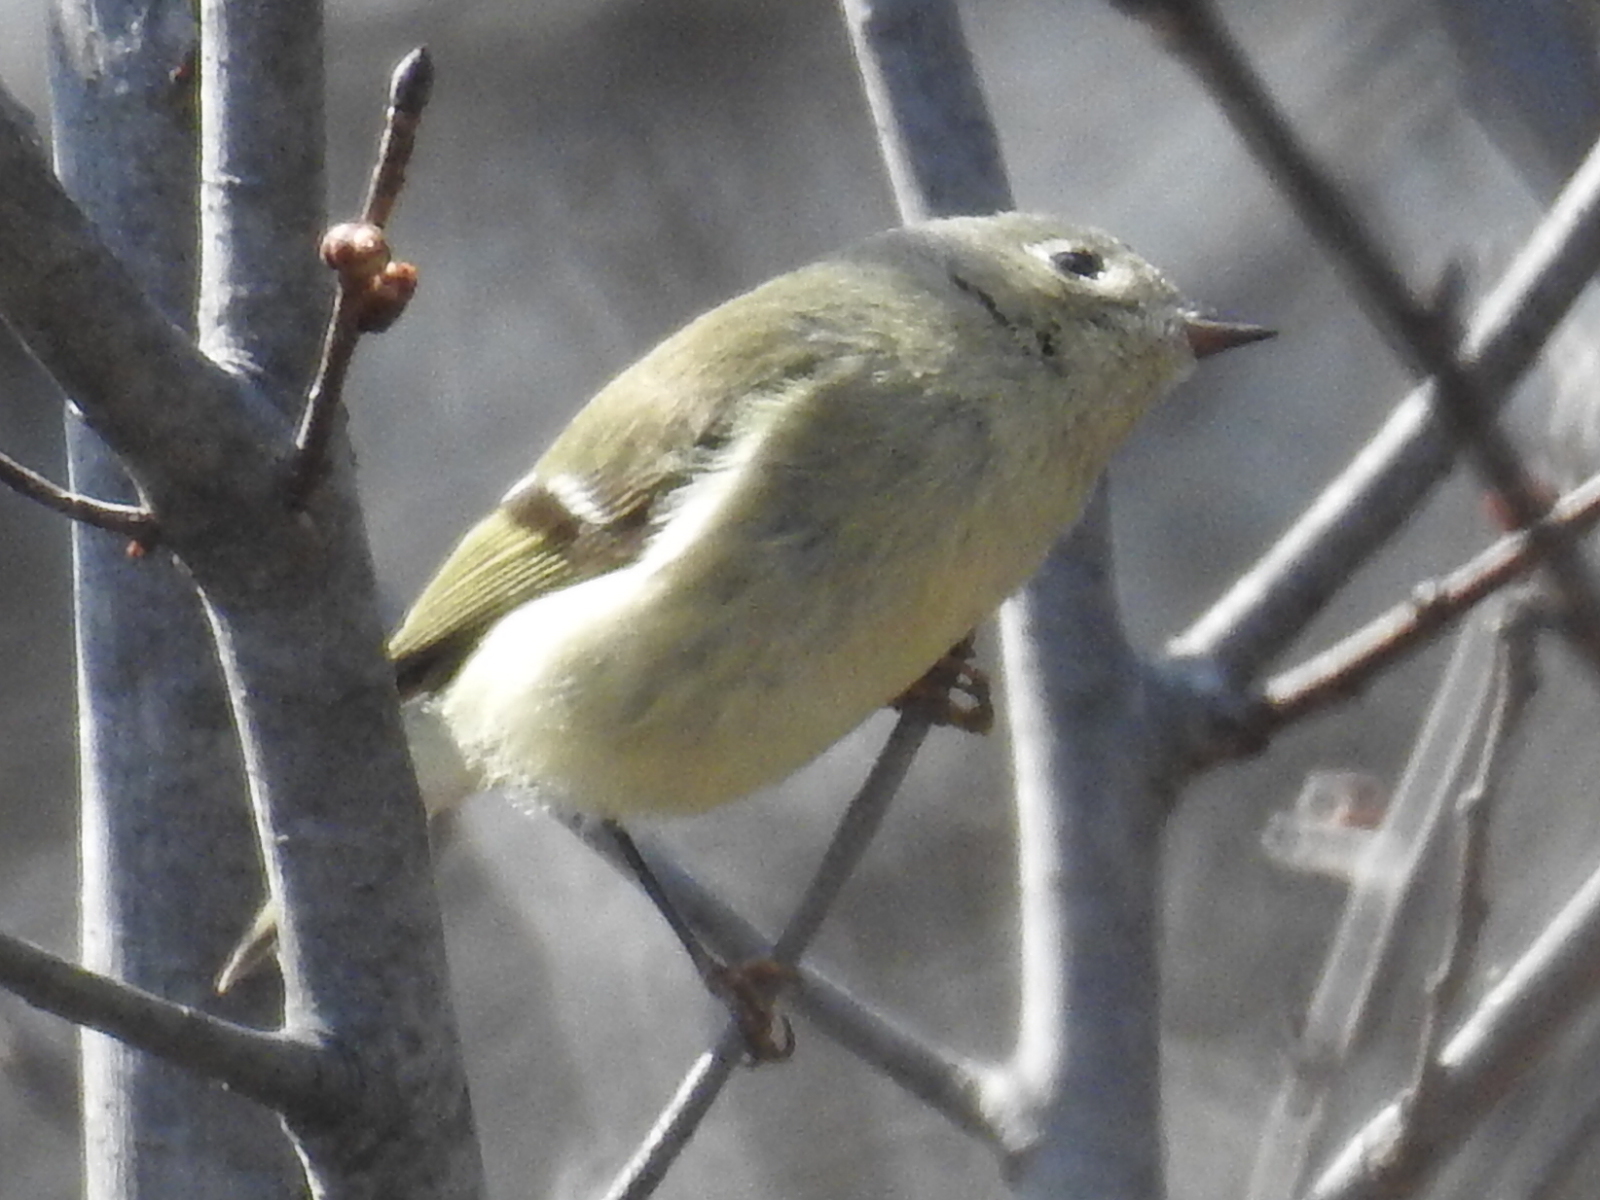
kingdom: Animalia
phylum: Chordata
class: Aves
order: Passeriformes
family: Regulidae
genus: Regulus
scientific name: Regulus calendula
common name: Ruby-crowned kinglet
